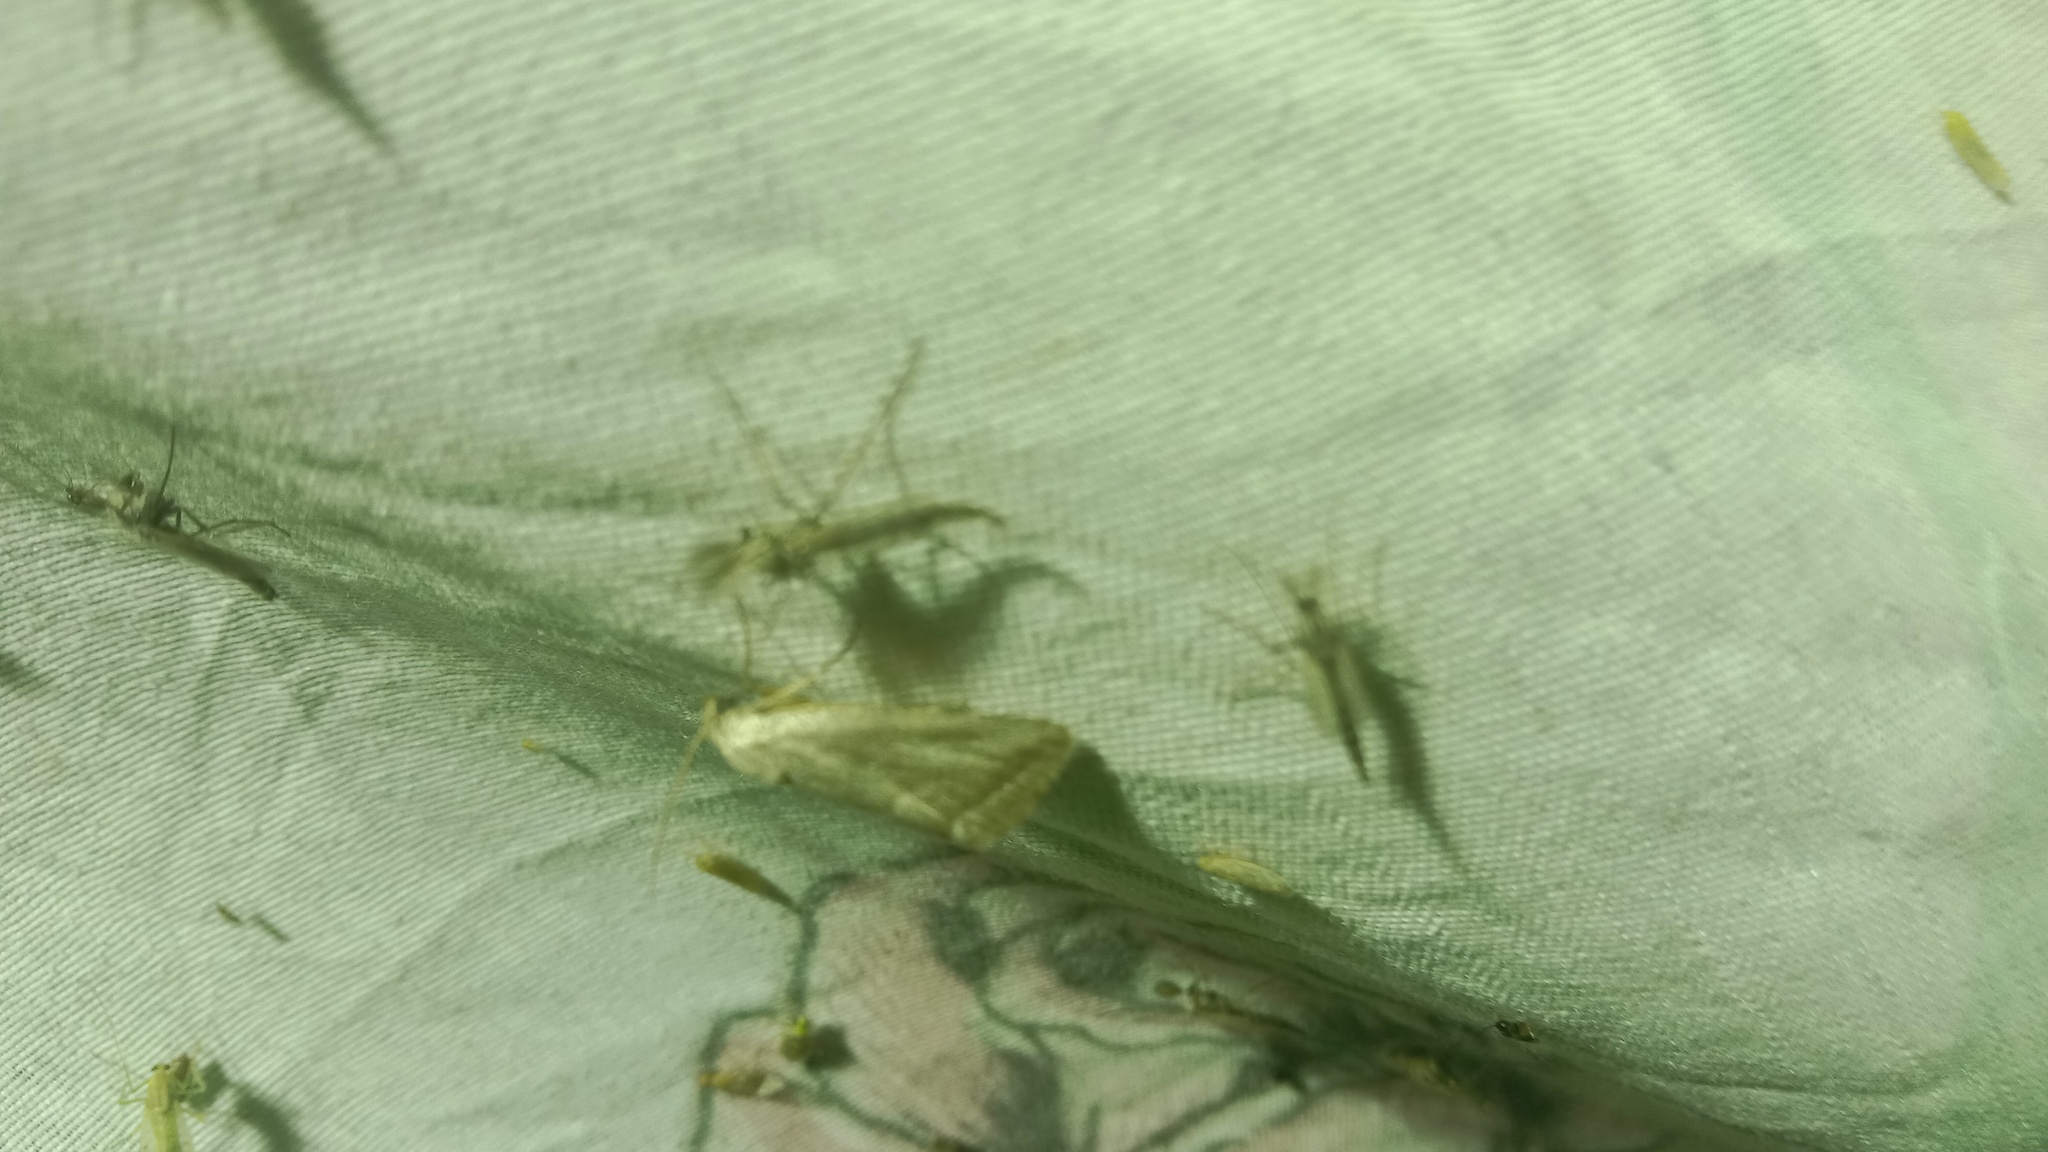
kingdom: Animalia
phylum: Arthropoda
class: Insecta
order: Lepidoptera
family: Noctuidae
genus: Phyllophila
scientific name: Phyllophila obliterata
